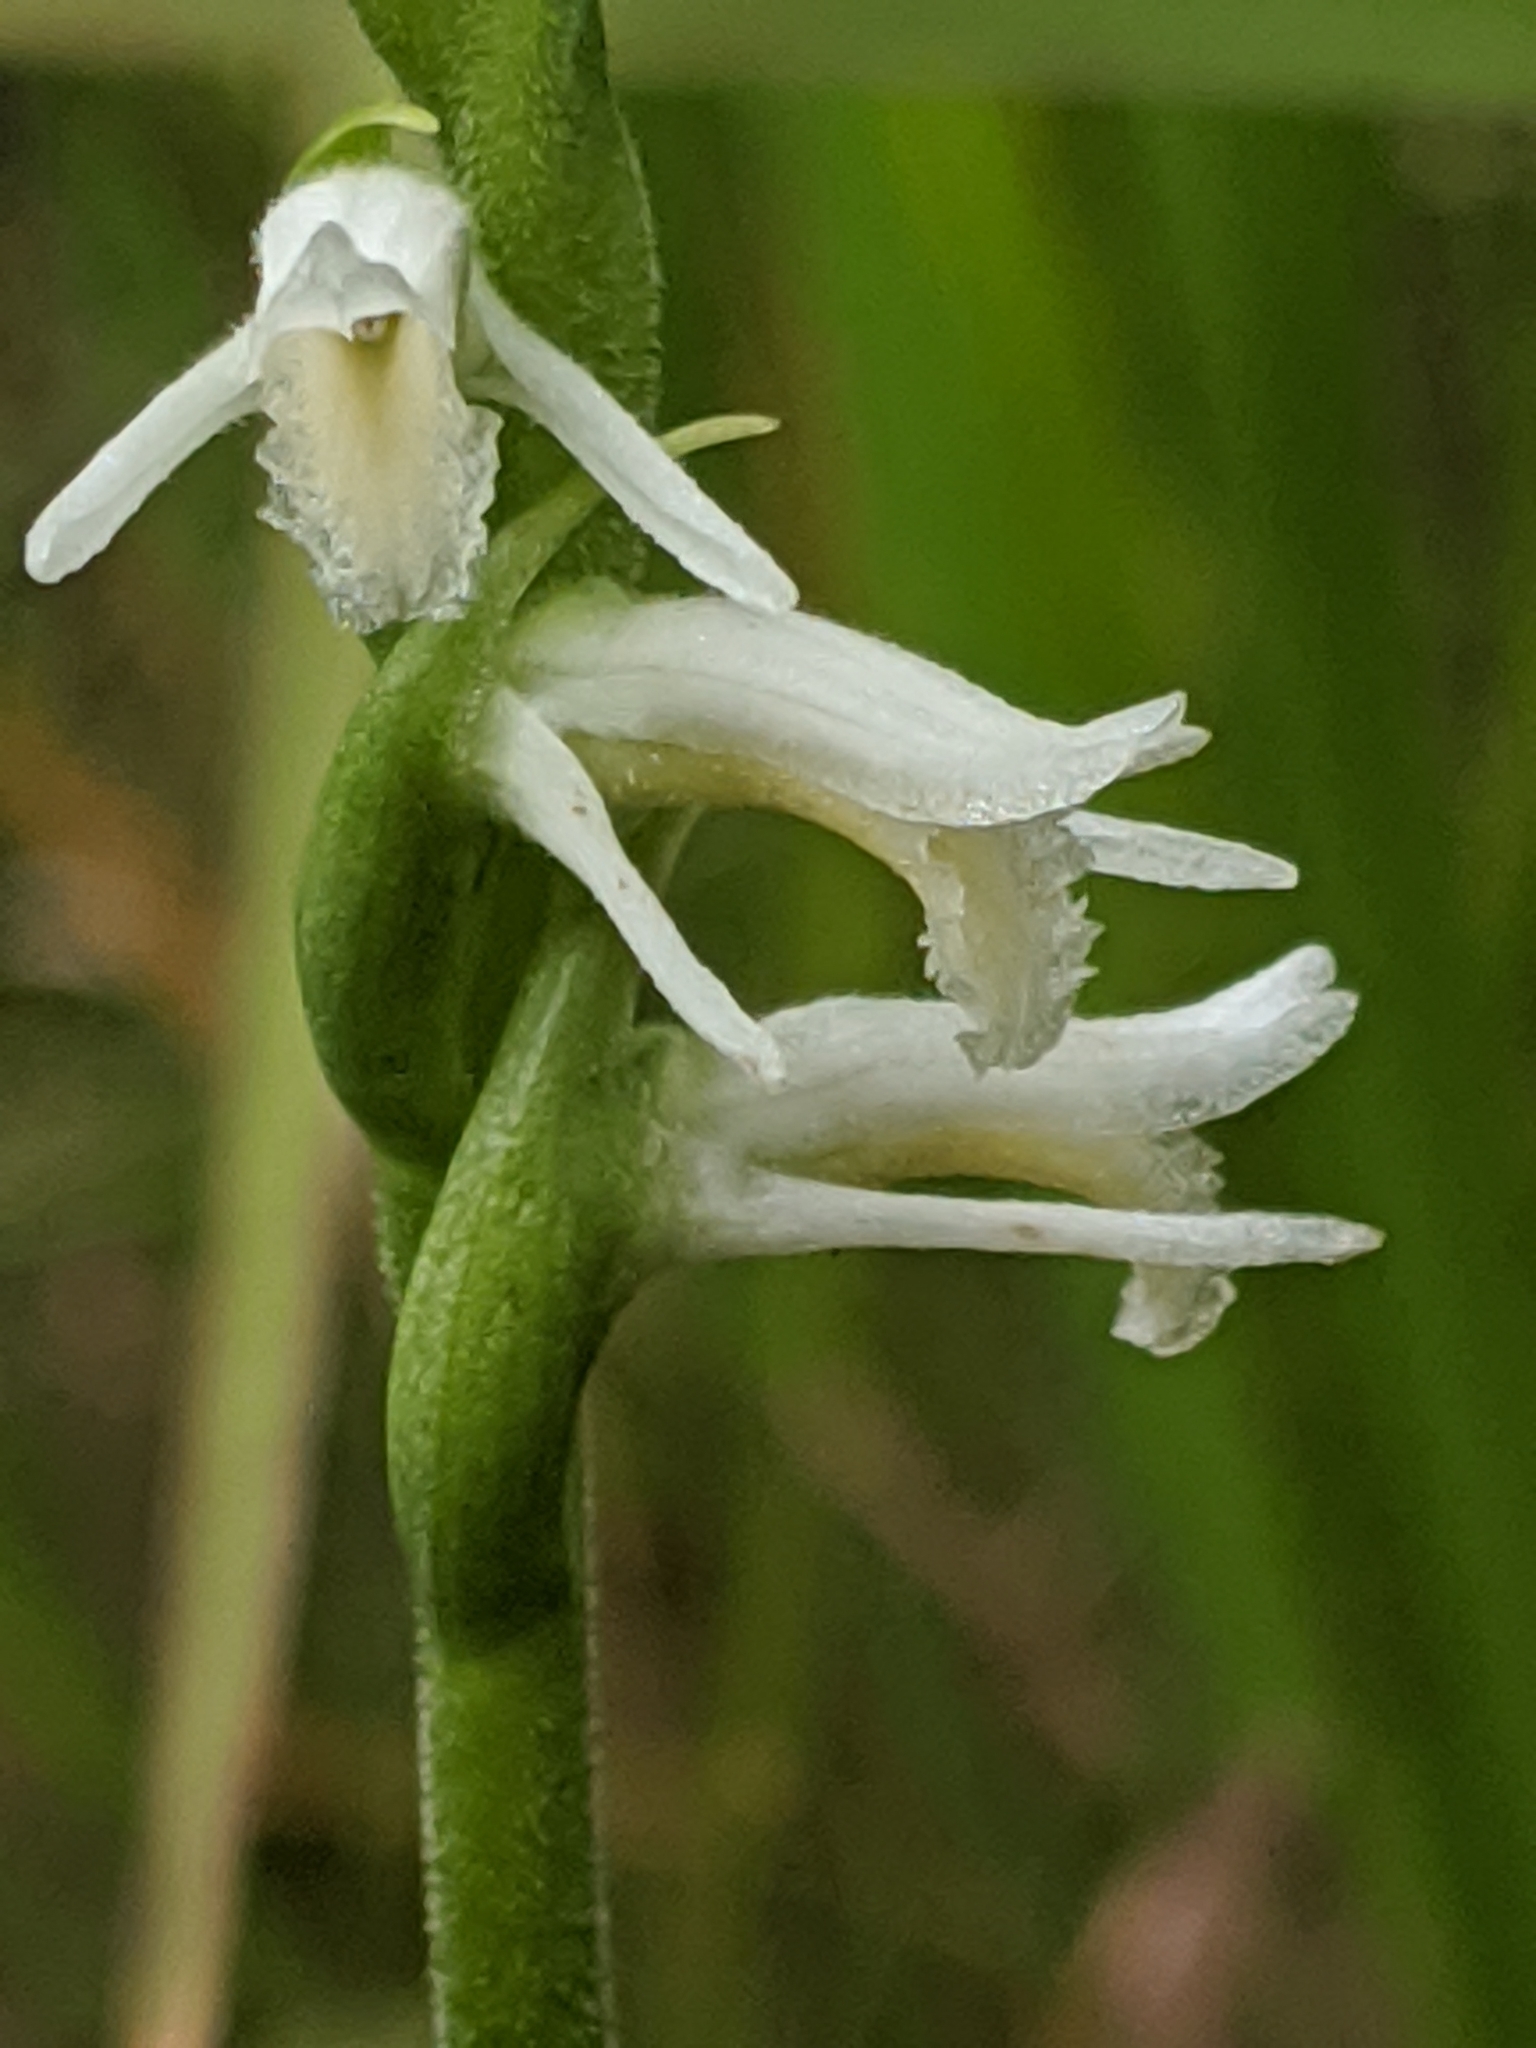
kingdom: Plantae
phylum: Tracheophyta
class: Liliopsida
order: Asparagales
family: Orchidaceae
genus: Spiranthes
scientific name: Spiranthes vernalis
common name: Spring ladies'-tresses
